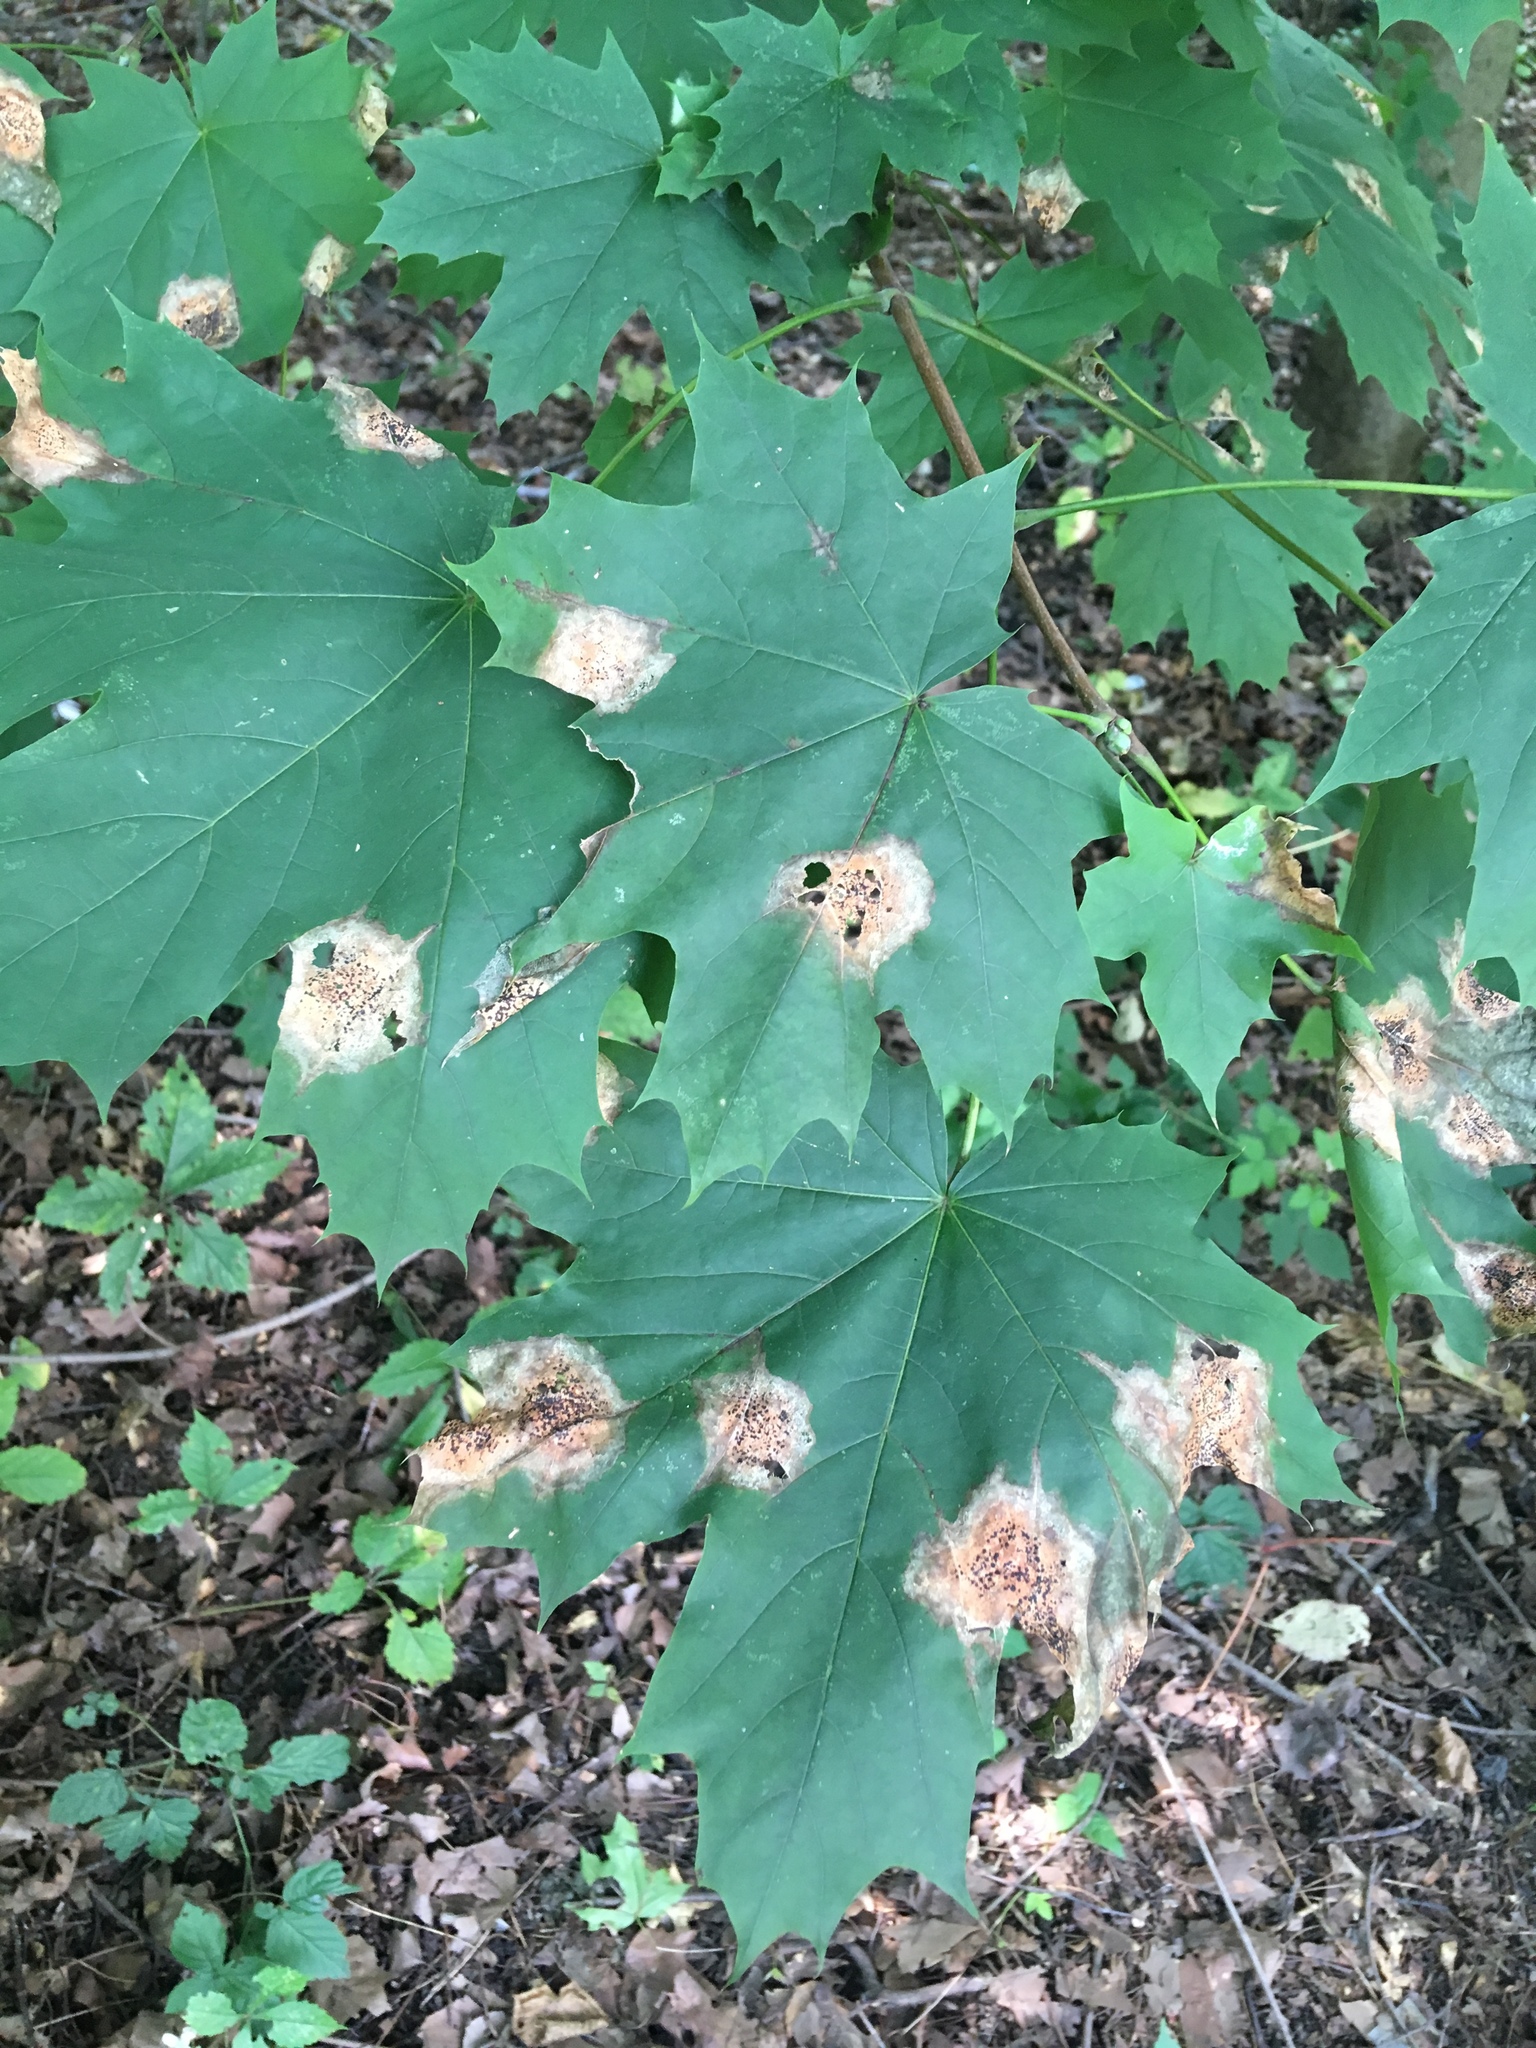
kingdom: Plantae
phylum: Tracheophyta
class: Magnoliopsida
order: Sapindales
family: Sapindaceae
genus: Acer
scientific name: Acer platanoides
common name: Norway maple
